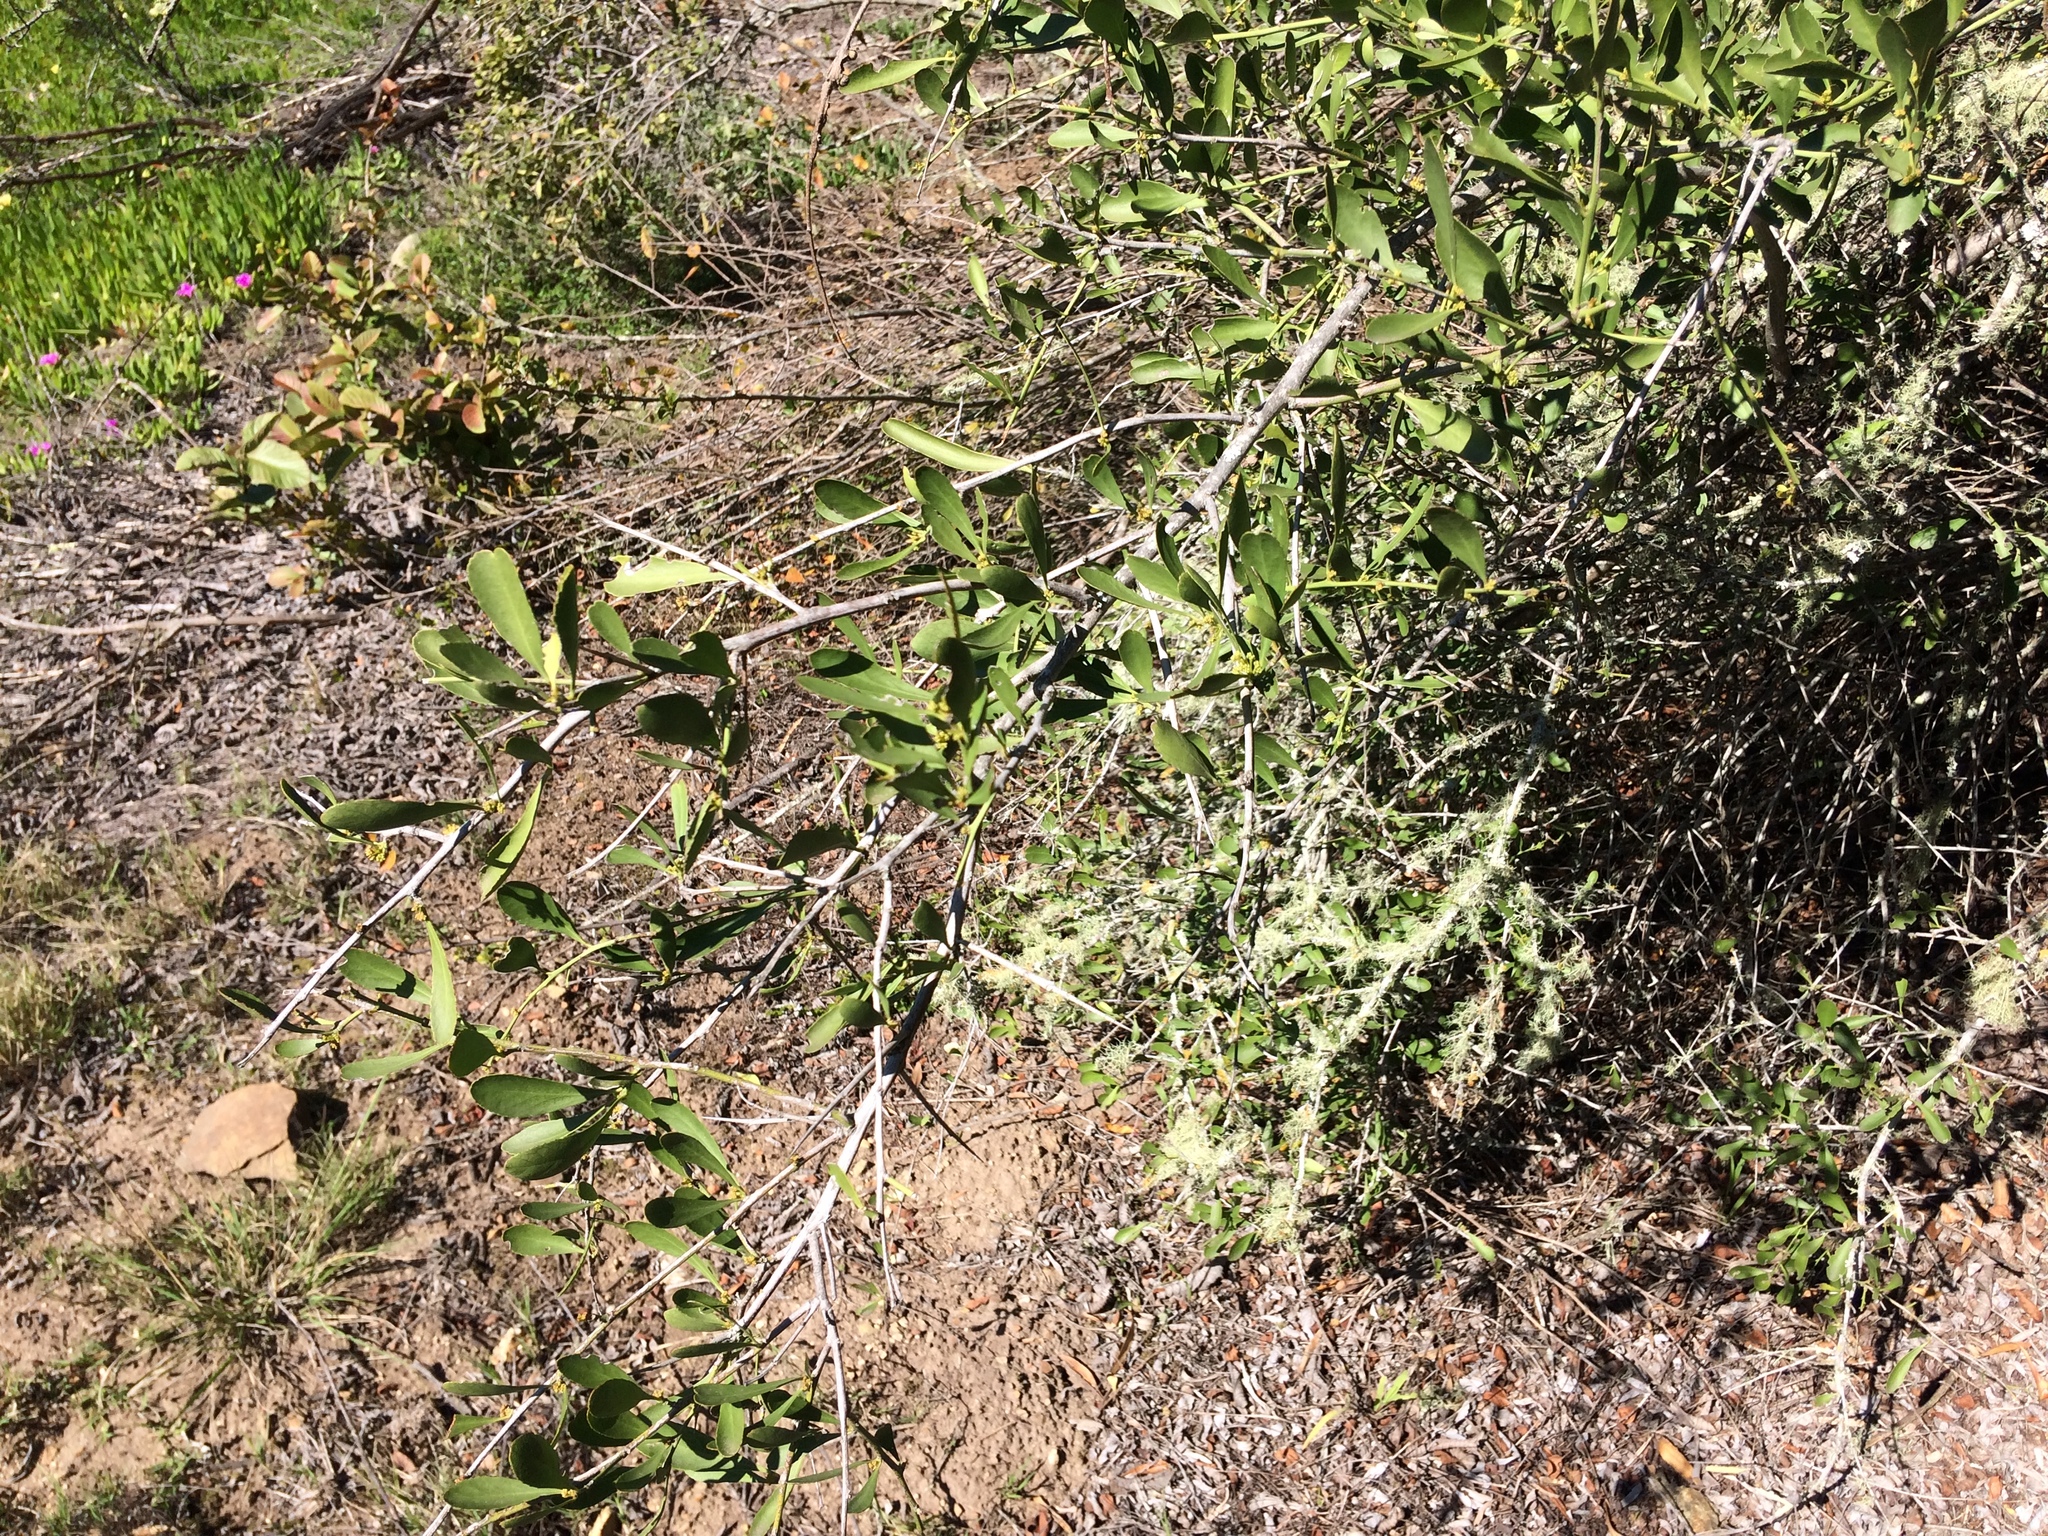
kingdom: Plantae
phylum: Tracheophyta
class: Magnoliopsida
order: Celastrales
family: Celastraceae
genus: Gymnosporia
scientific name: Gymnosporia buxifolia
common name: Common spike-thorn
